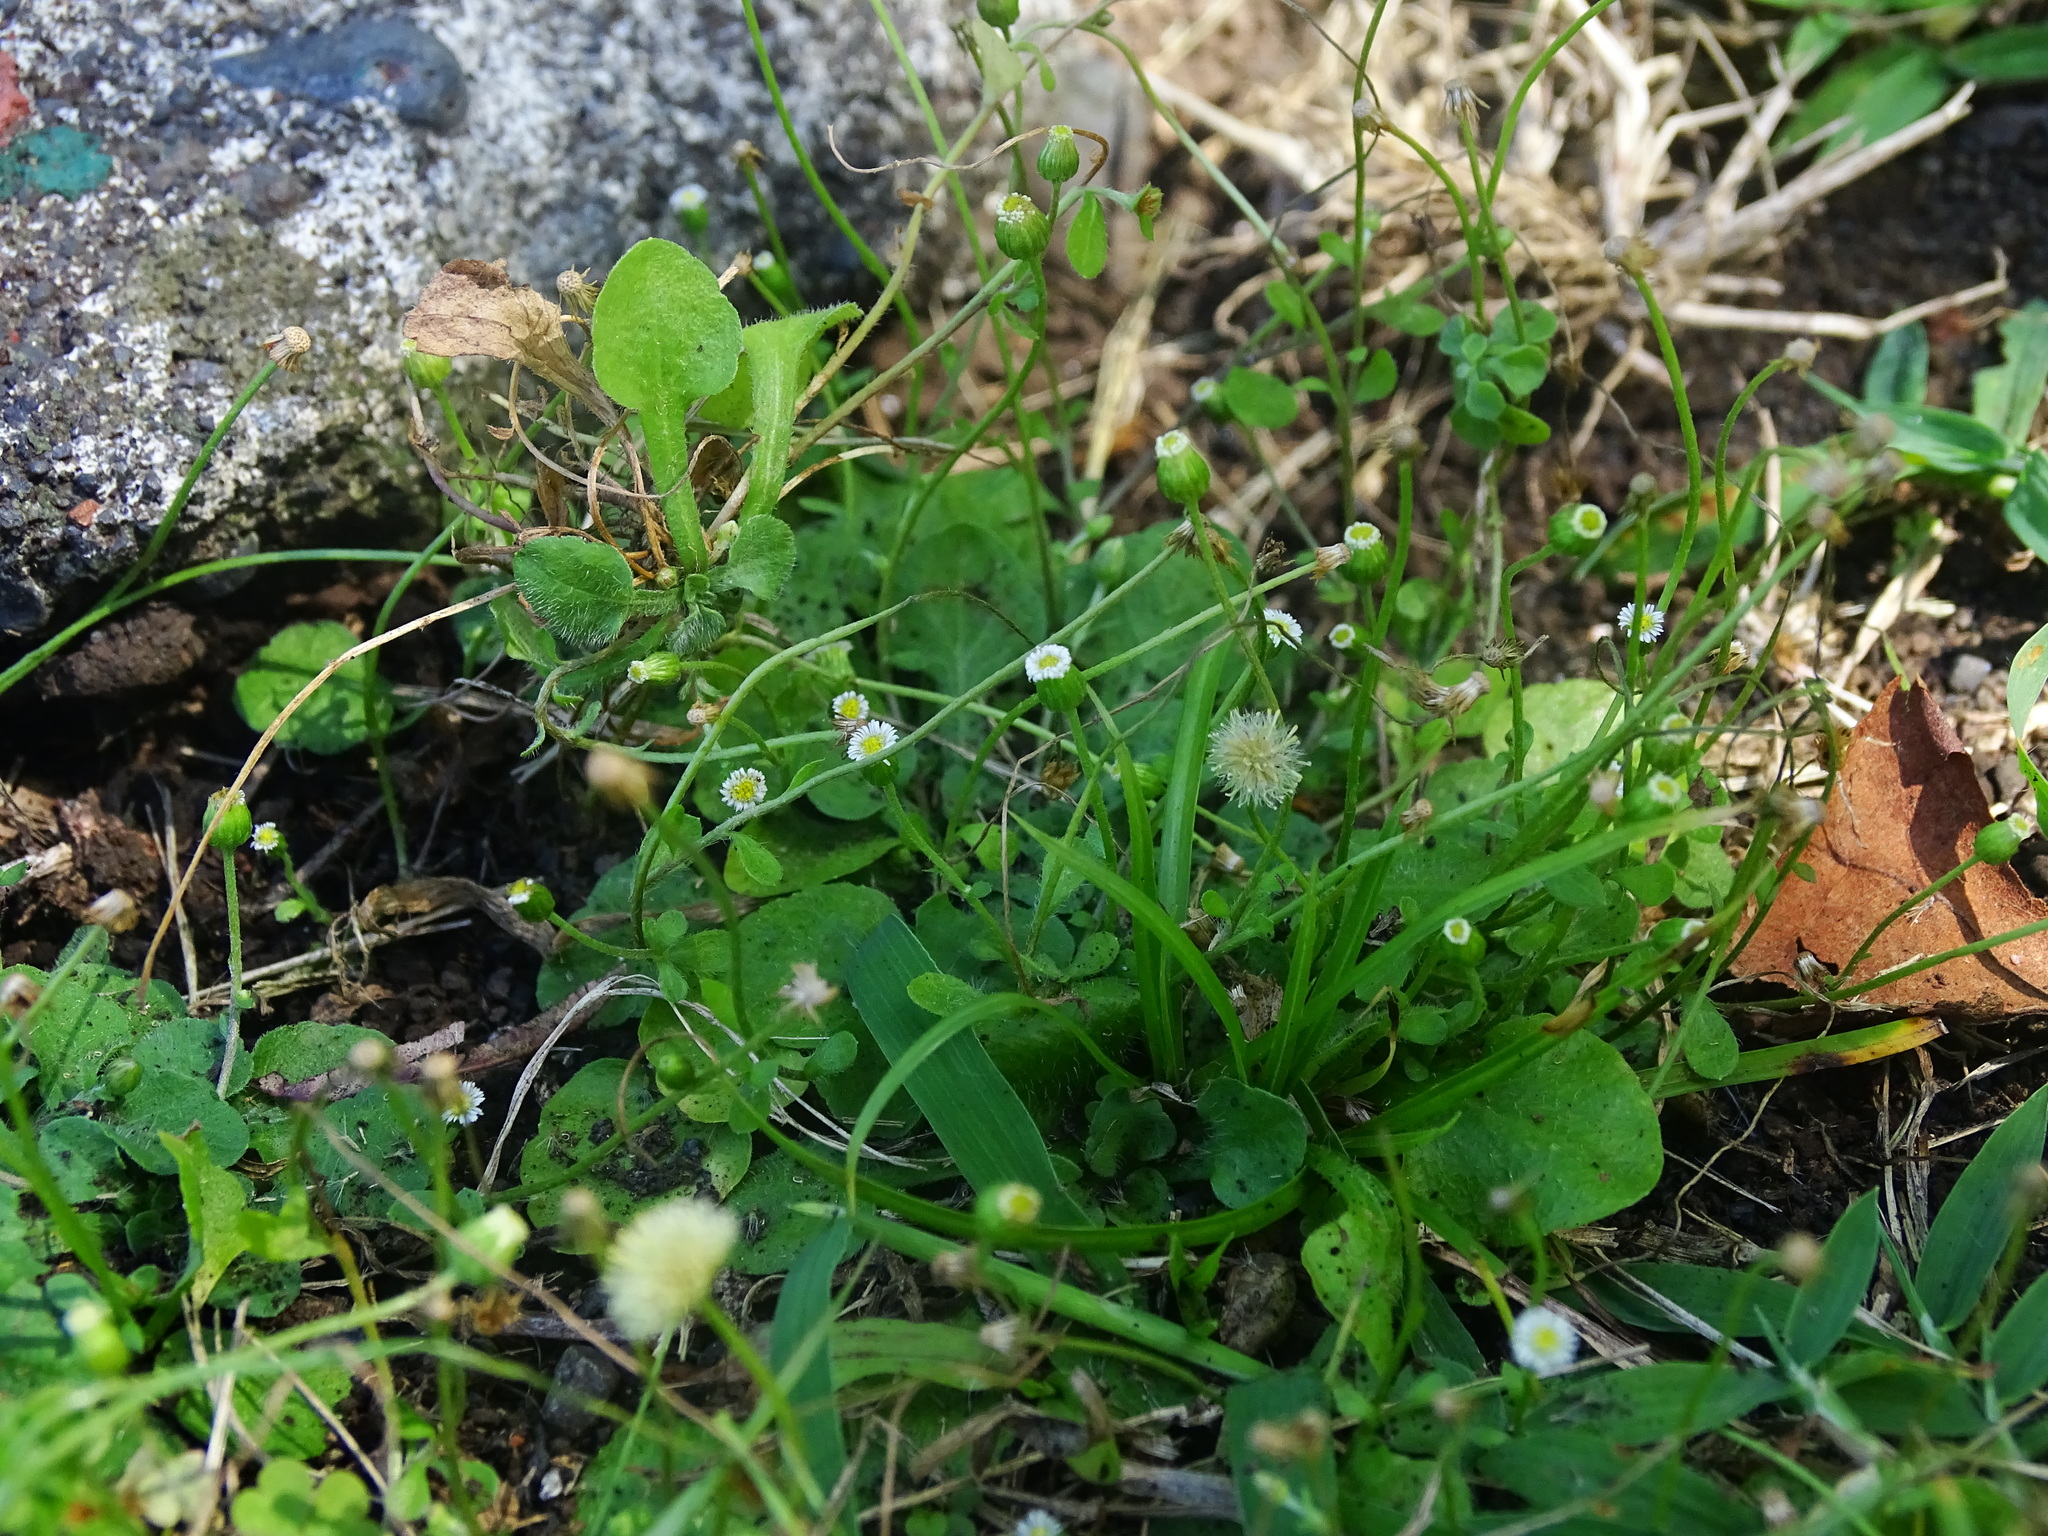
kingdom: Plantae
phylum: Tracheophyta
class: Magnoliopsida
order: Asterales
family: Asteraceae
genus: Erigeron
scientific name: Erigeron bellioides
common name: Bellorita
